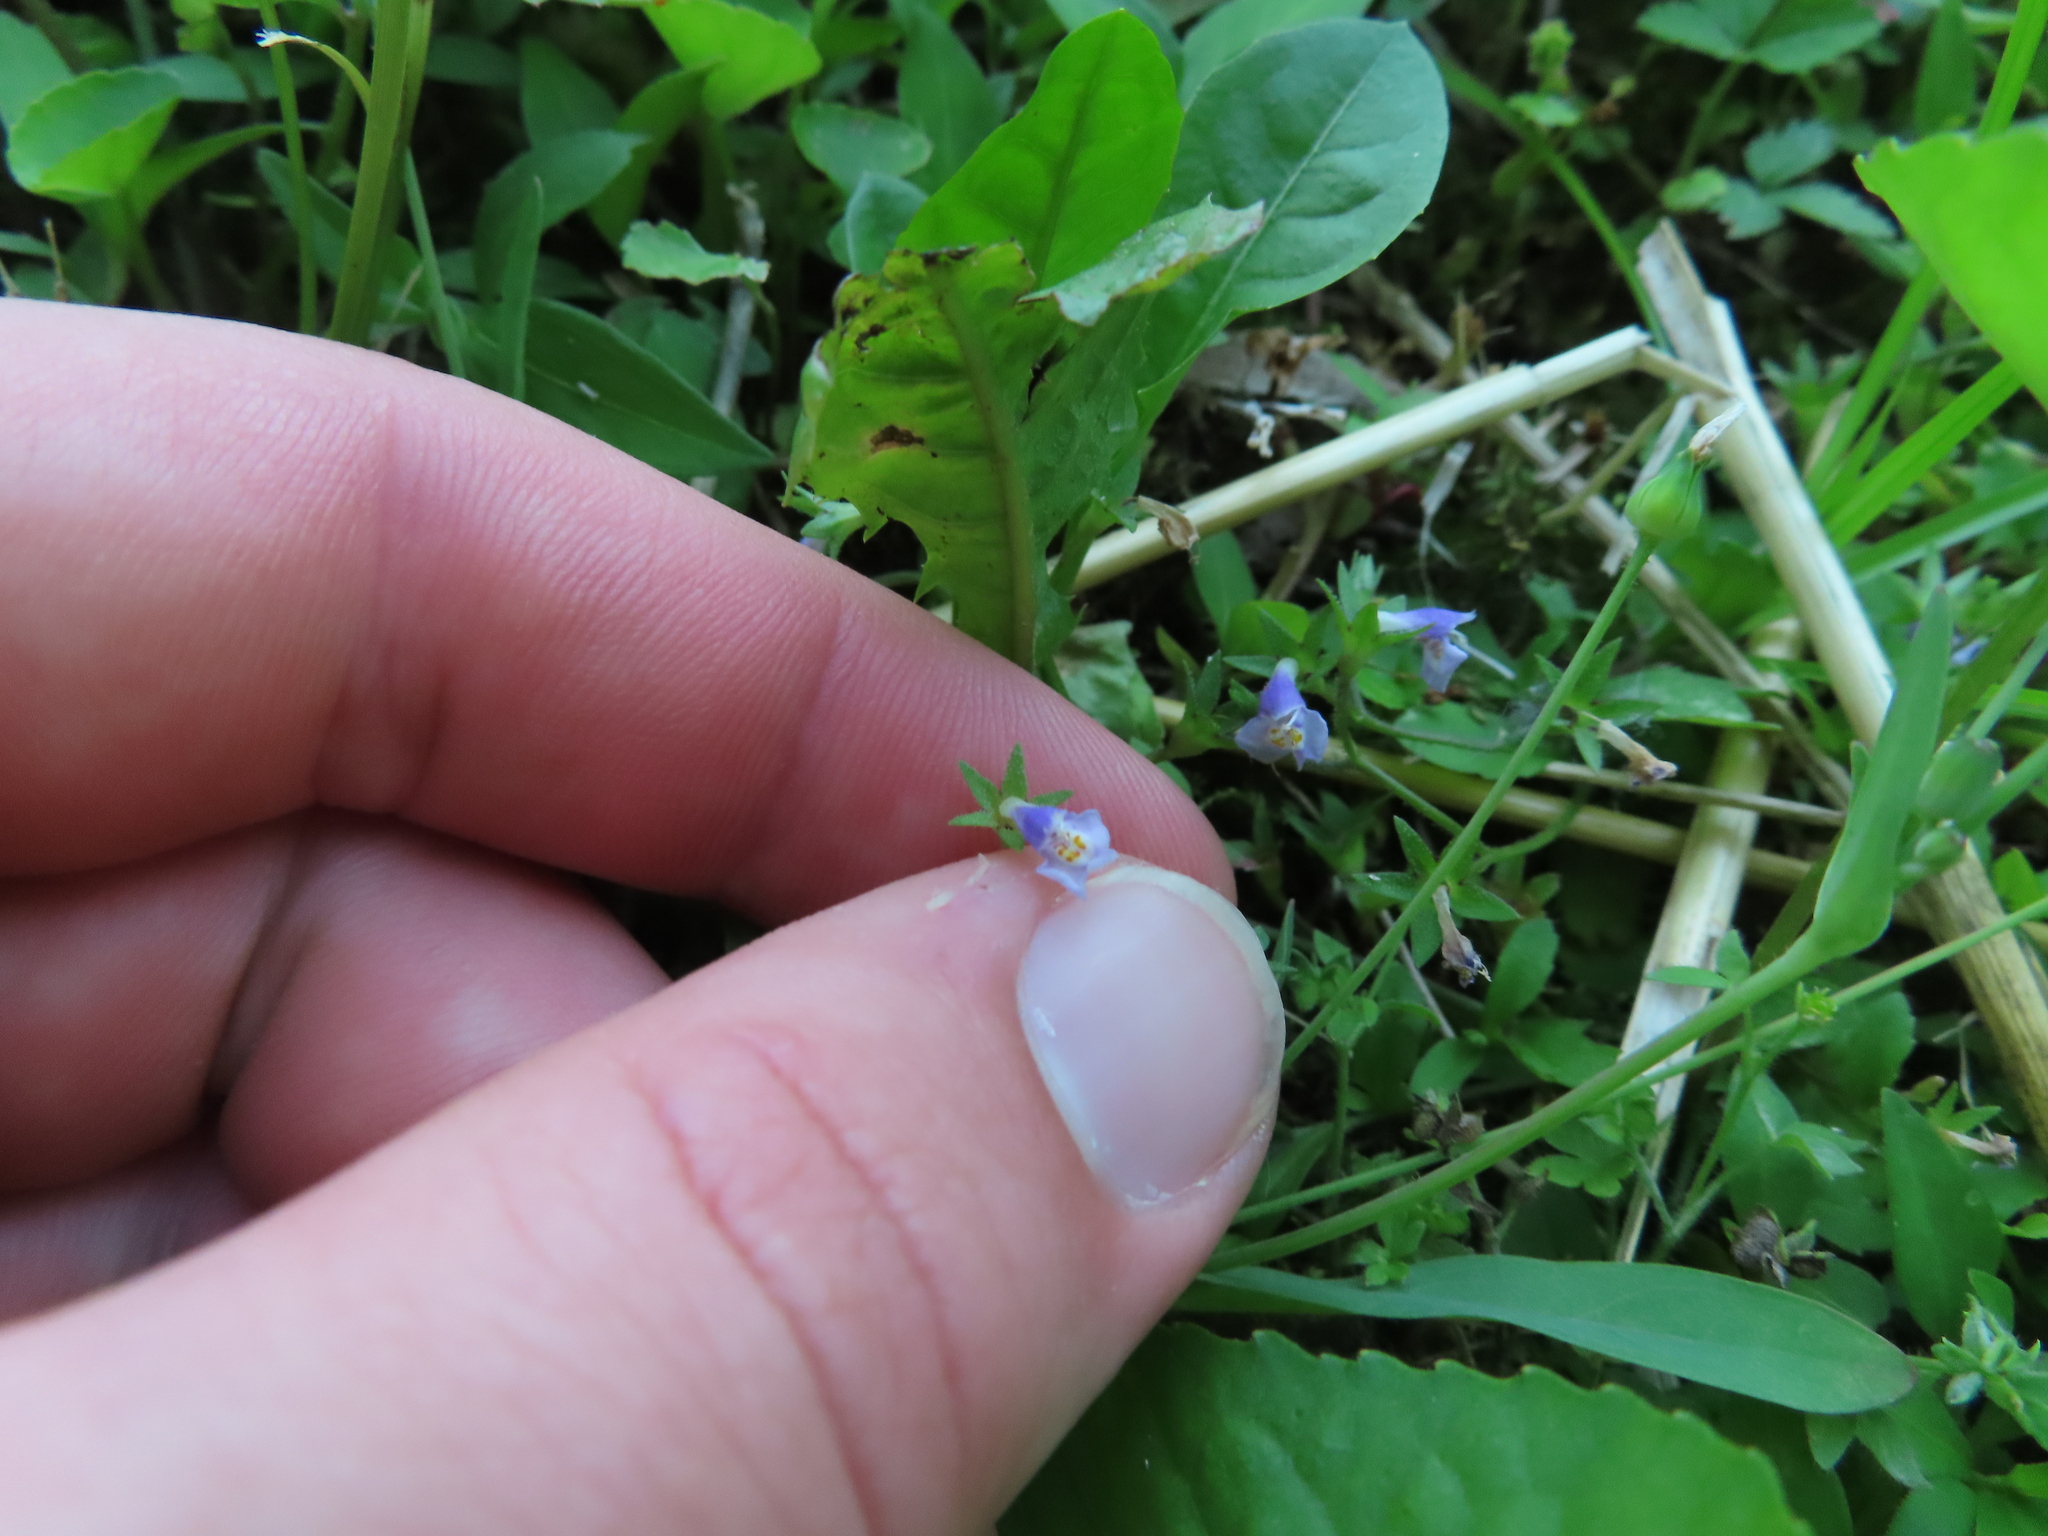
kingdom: Plantae
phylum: Tracheophyta
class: Magnoliopsida
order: Lamiales
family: Mazaceae
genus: Mazus
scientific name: Mazus pumilus
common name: Japanese mazus
